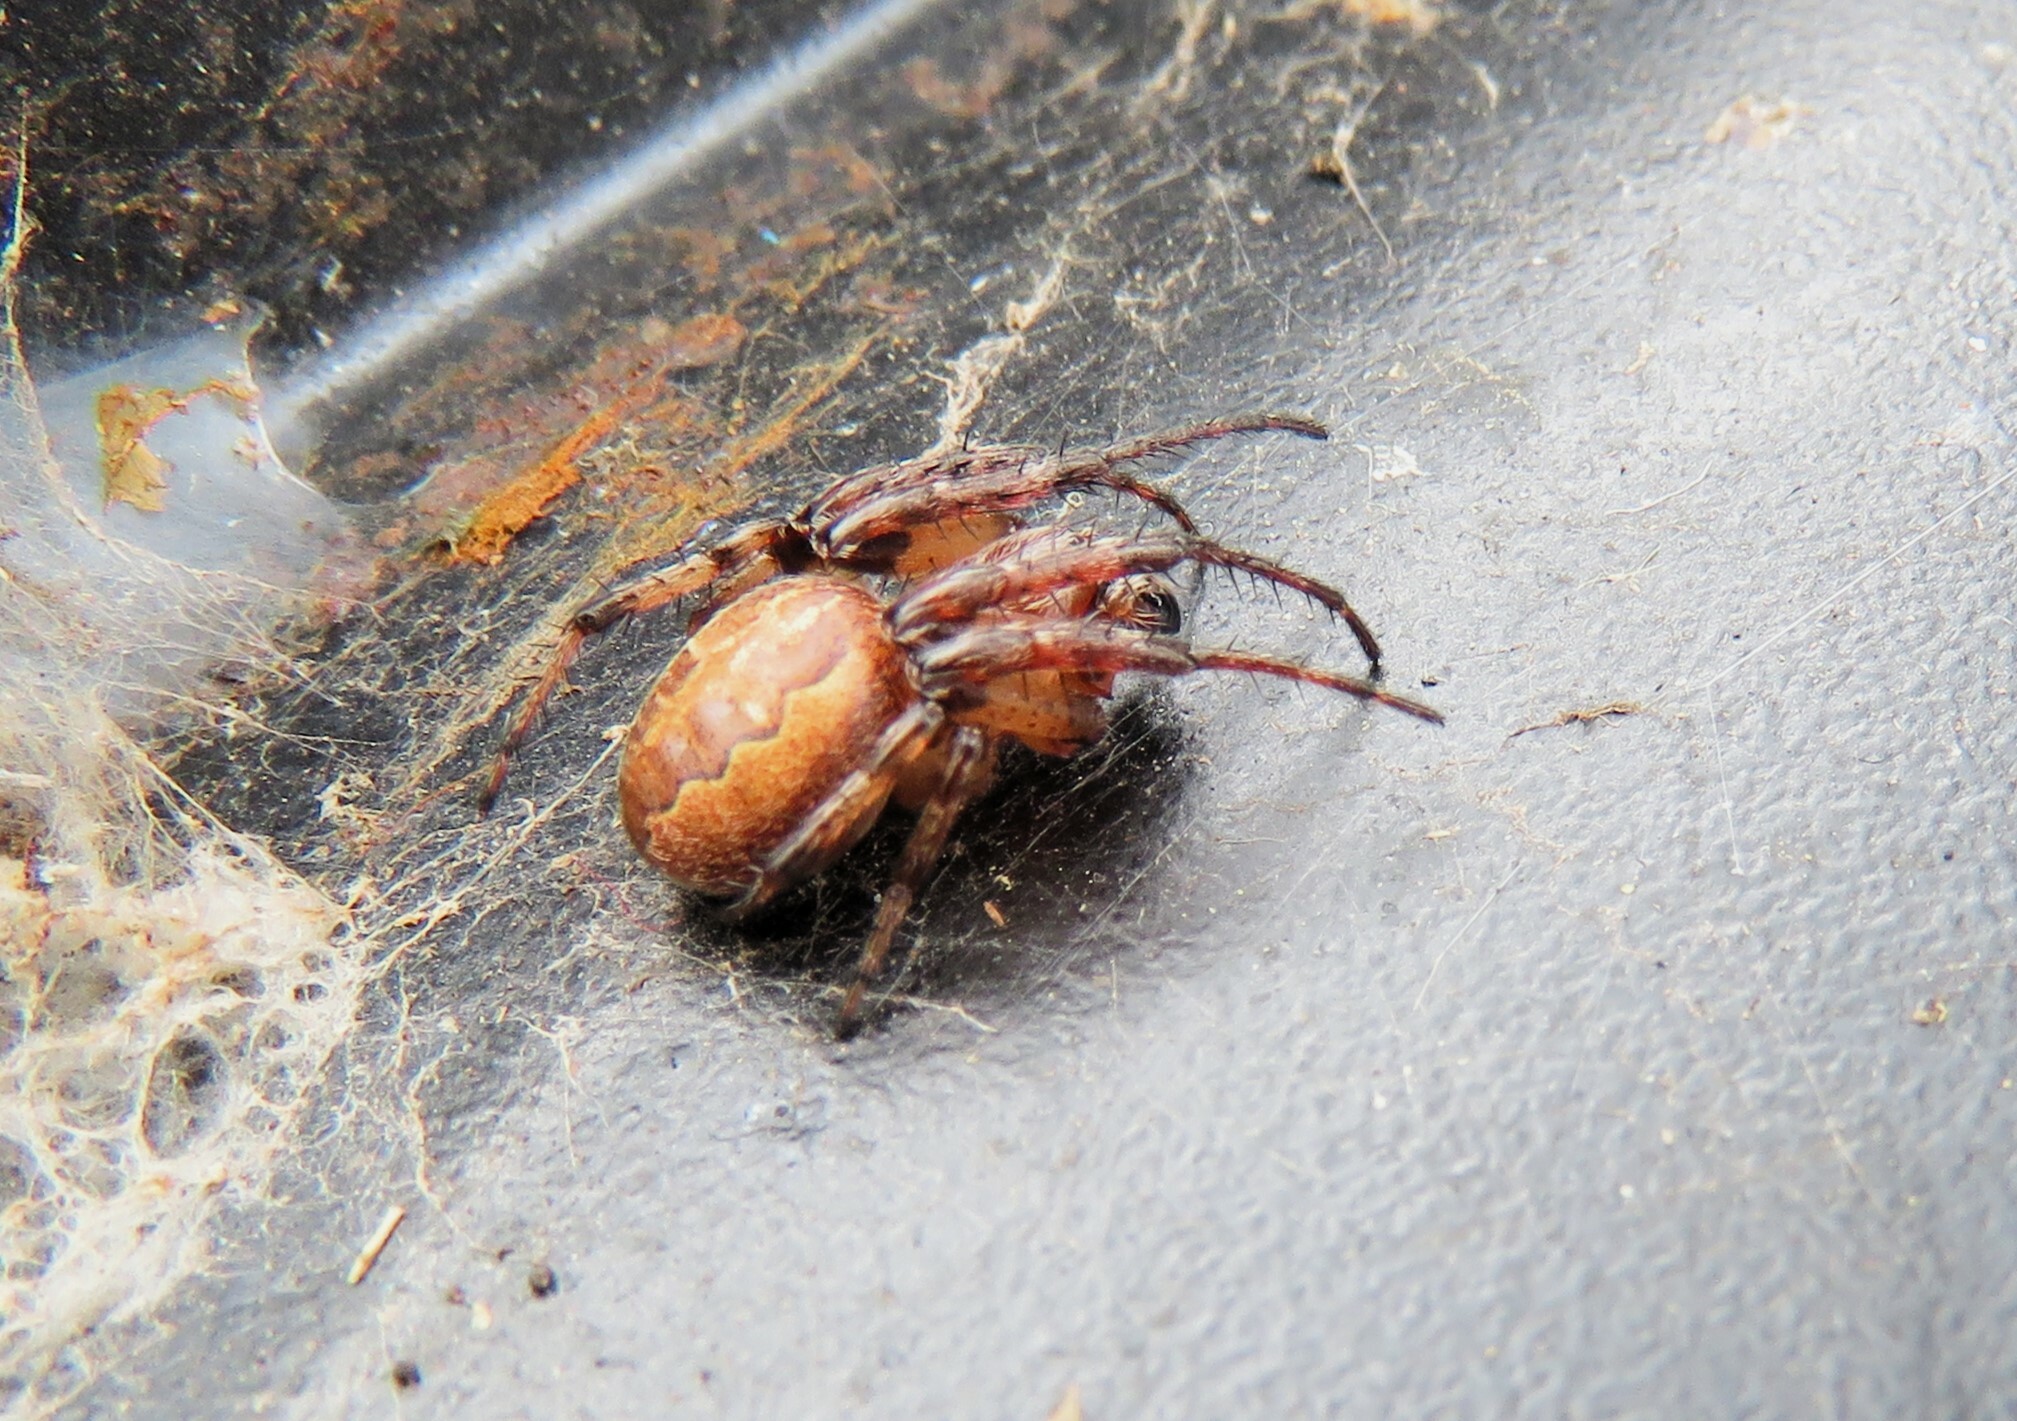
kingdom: Animalia
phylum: Arthropoda
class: Arachnida
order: Araneae
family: Araneidae
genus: Larinioides
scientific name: Larinioides cornutus
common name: Furrow orbweaver
